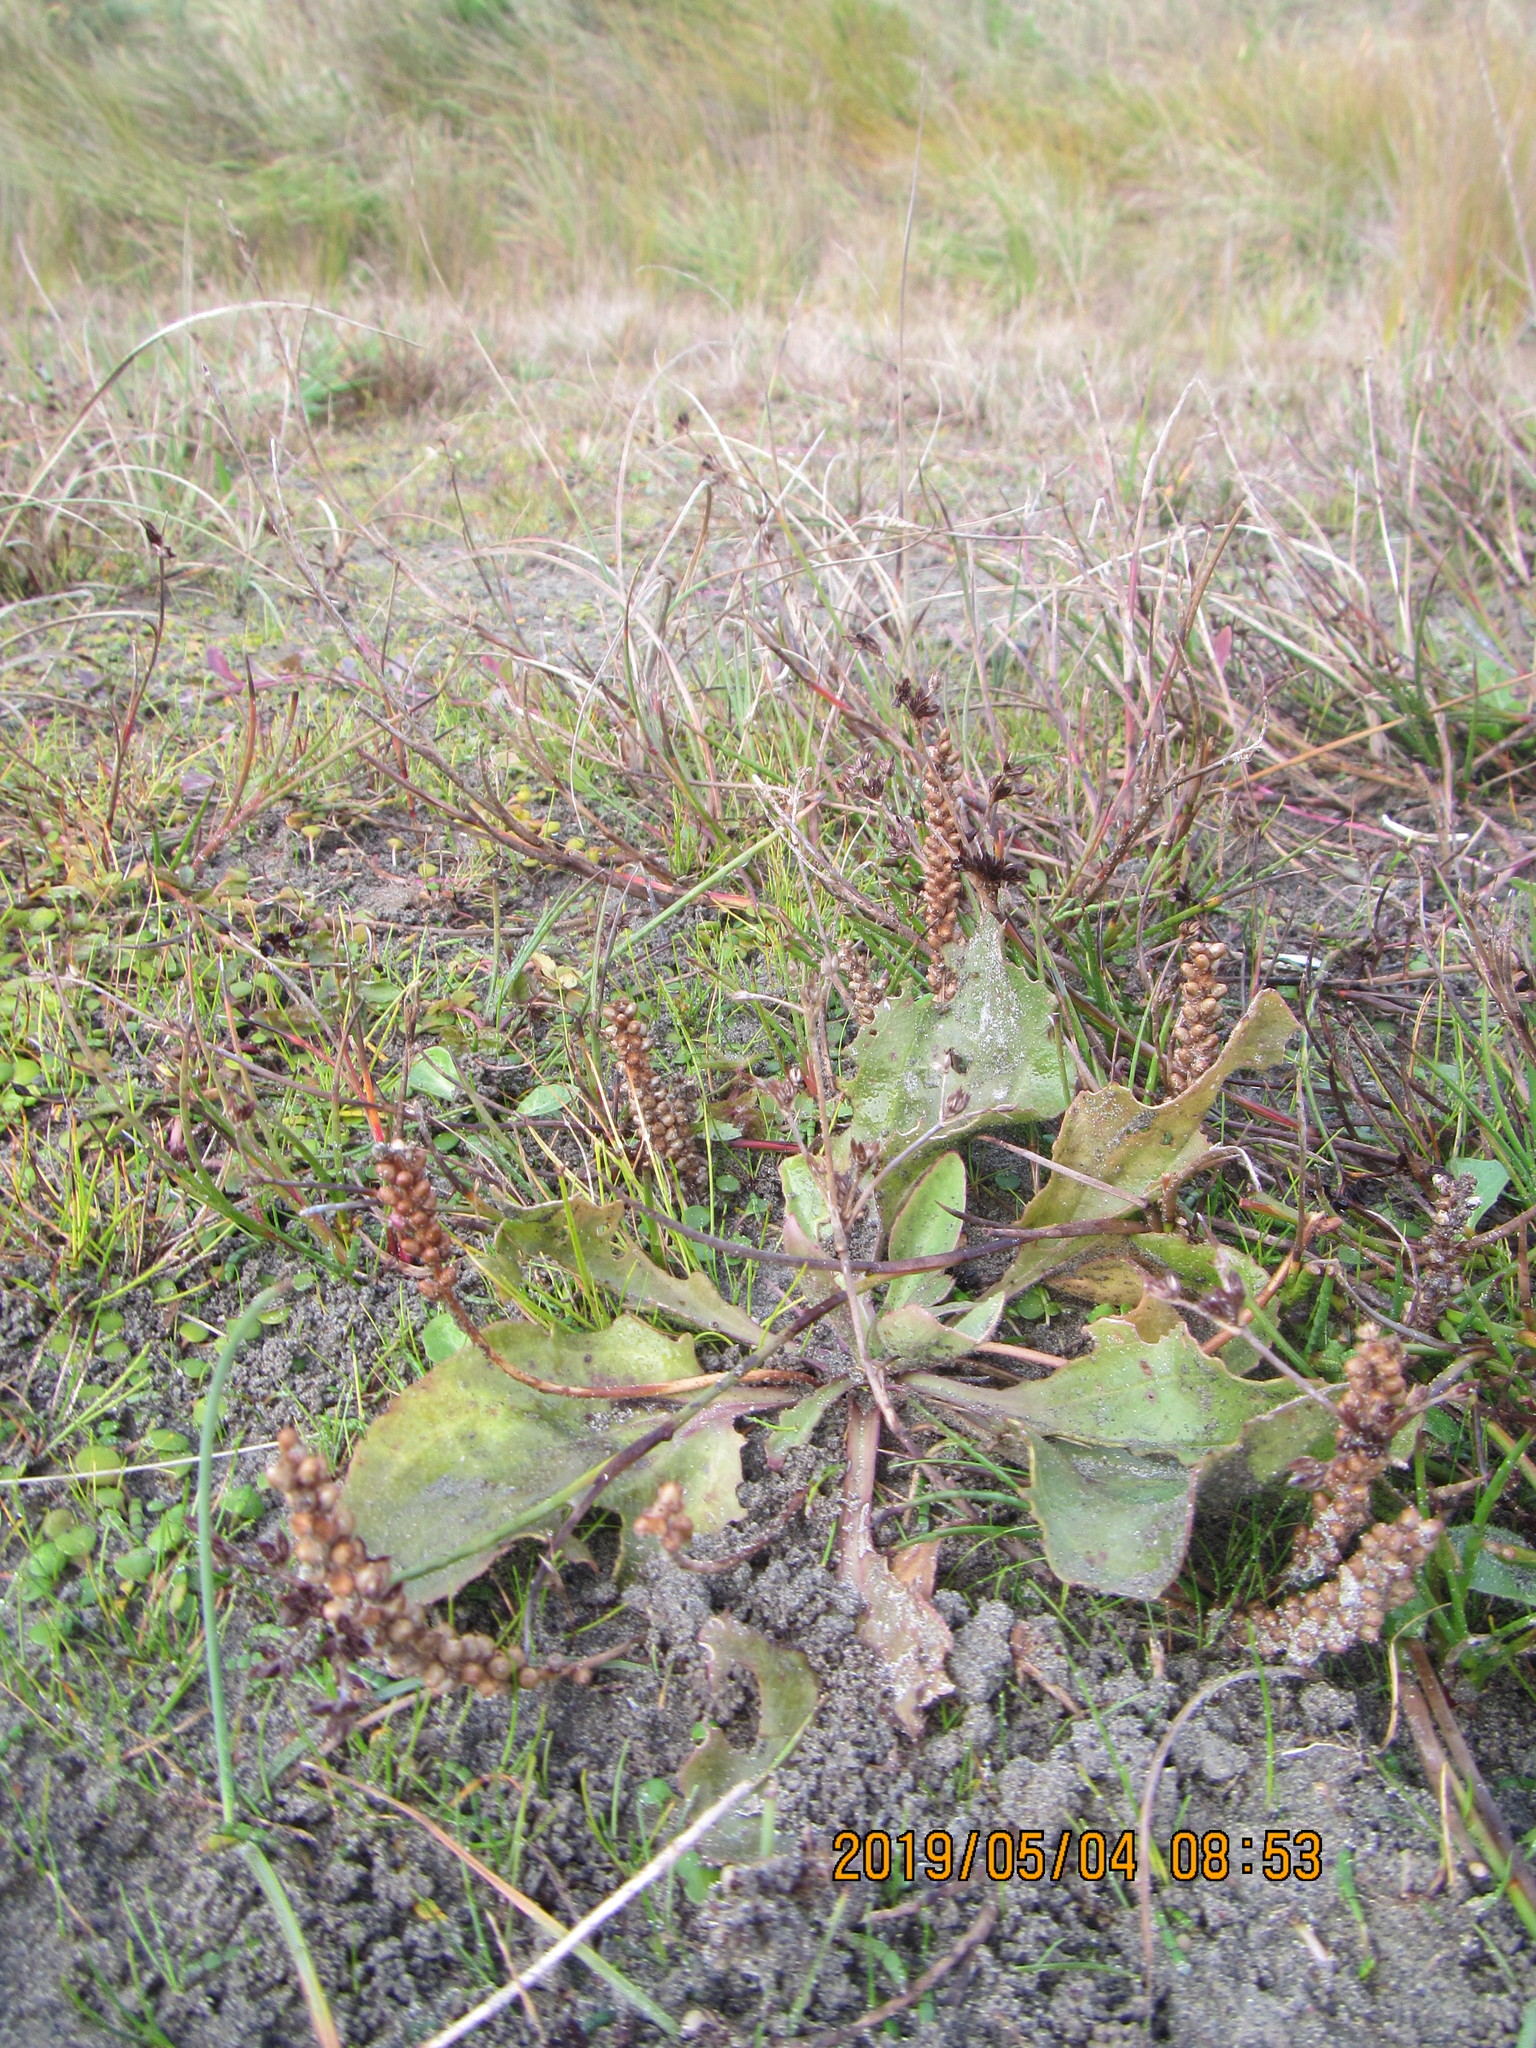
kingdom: Plantae
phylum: Tracheophyta
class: Magnoliopsida
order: Lamiales
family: Plantaginaceae
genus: Plantago
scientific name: Plantago major
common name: Common plantain
